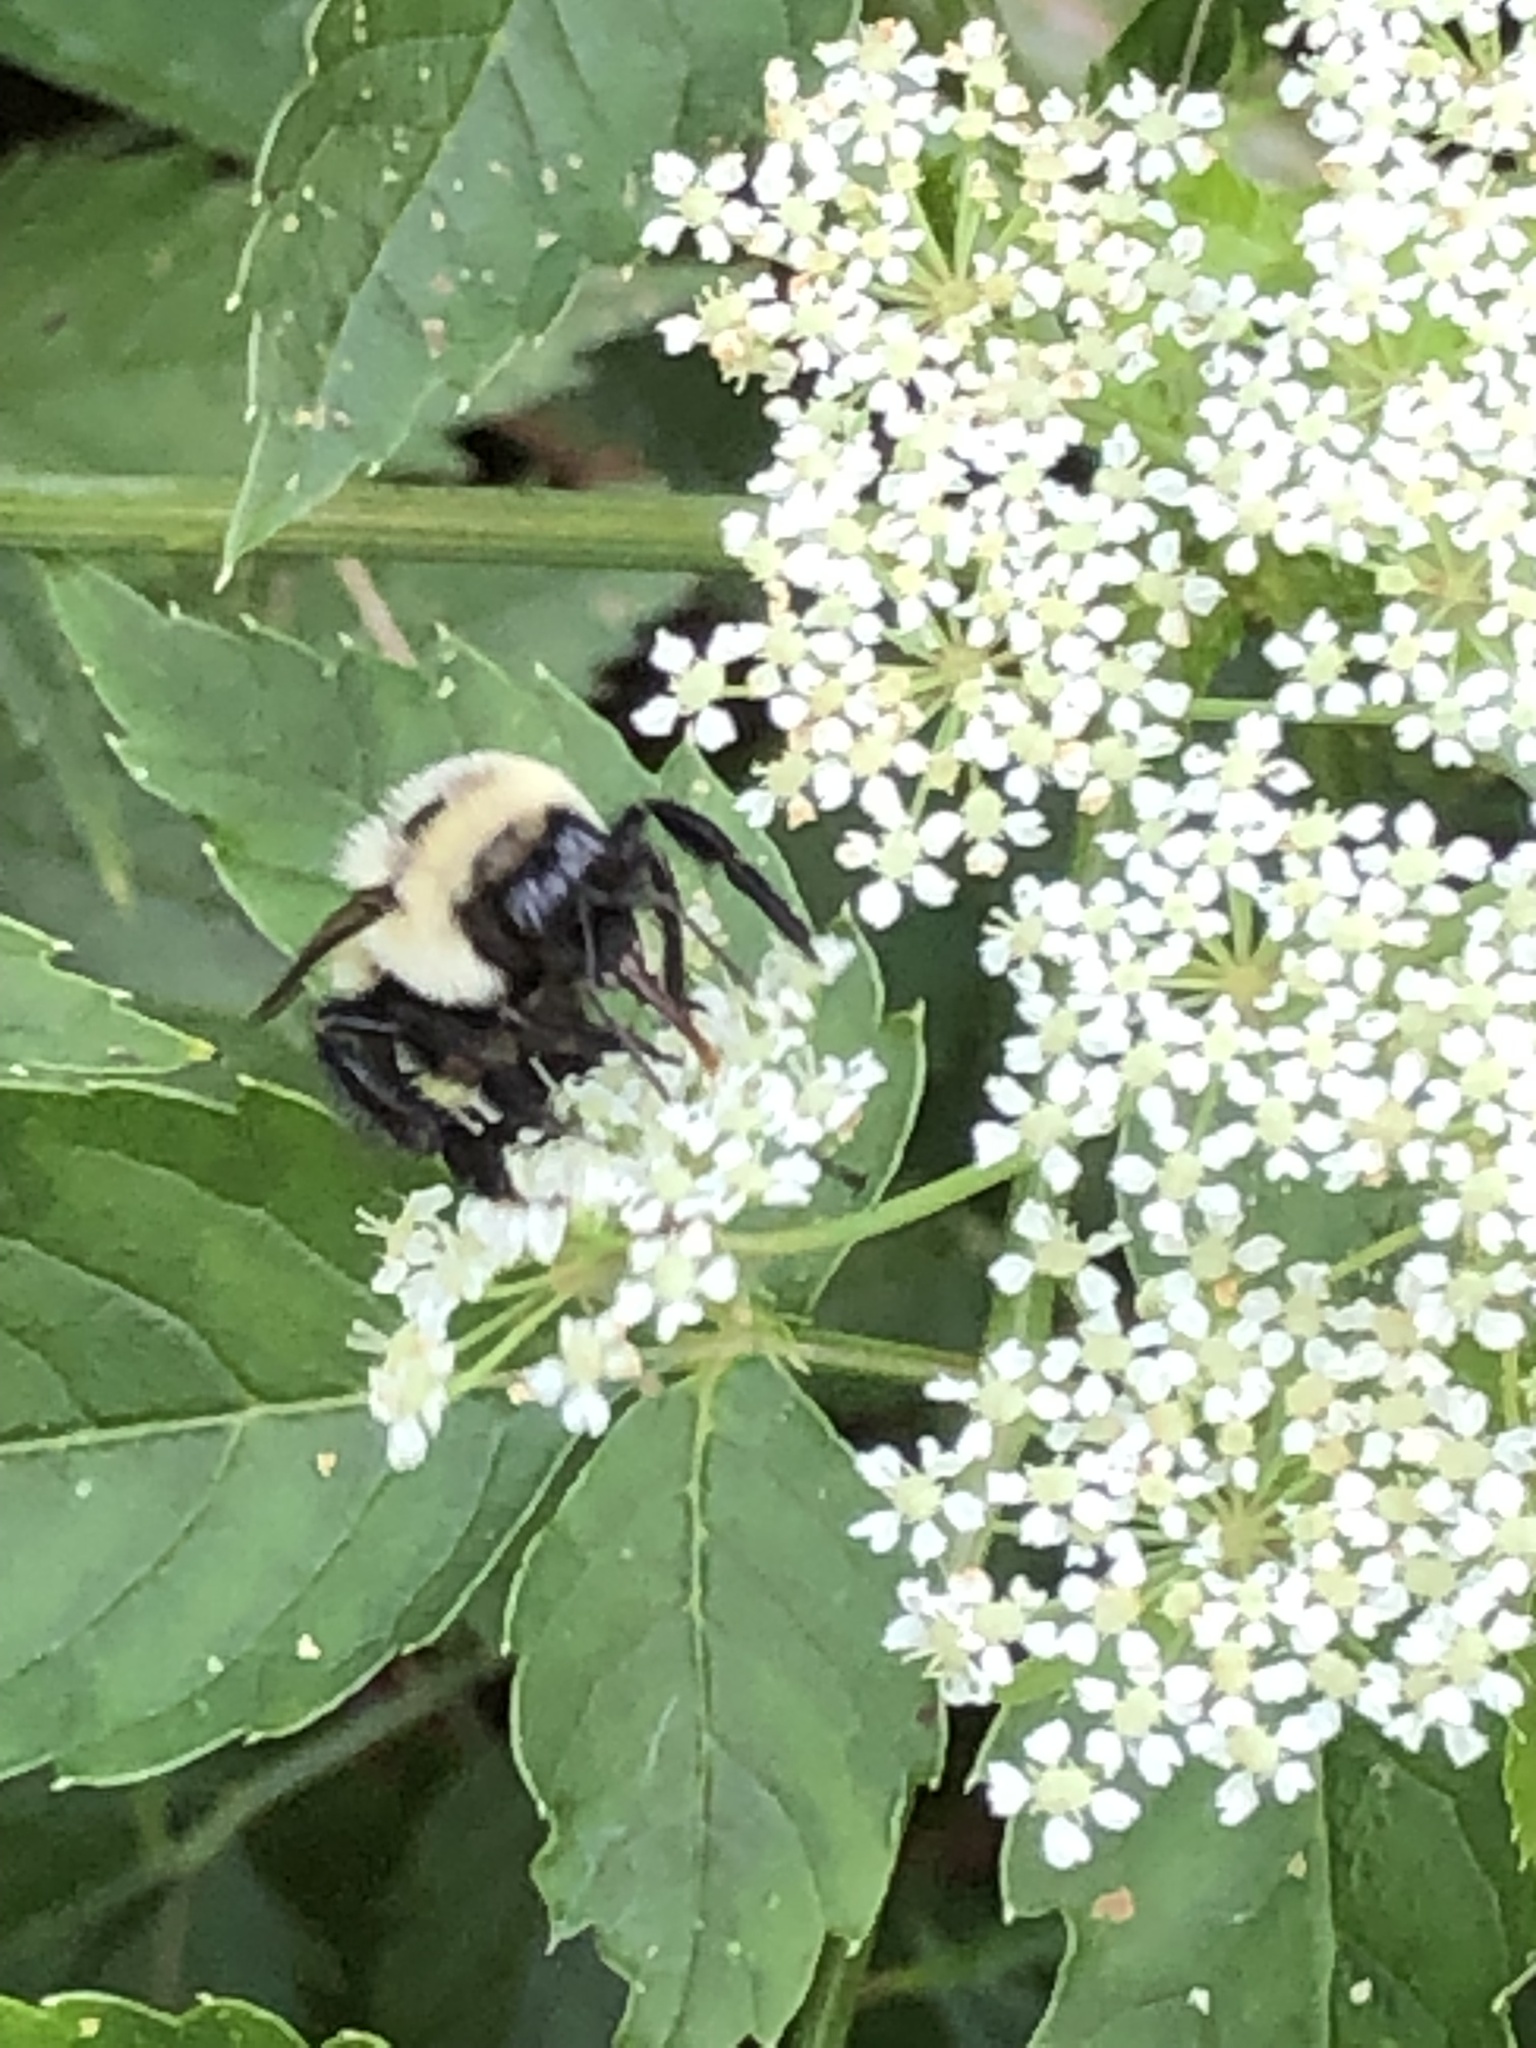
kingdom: Animalia
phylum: Arthropoda
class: Insecta
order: Hymenoptera
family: Apidae
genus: Bombus
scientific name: Bombus impatiens
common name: Common eastern bumble bee
